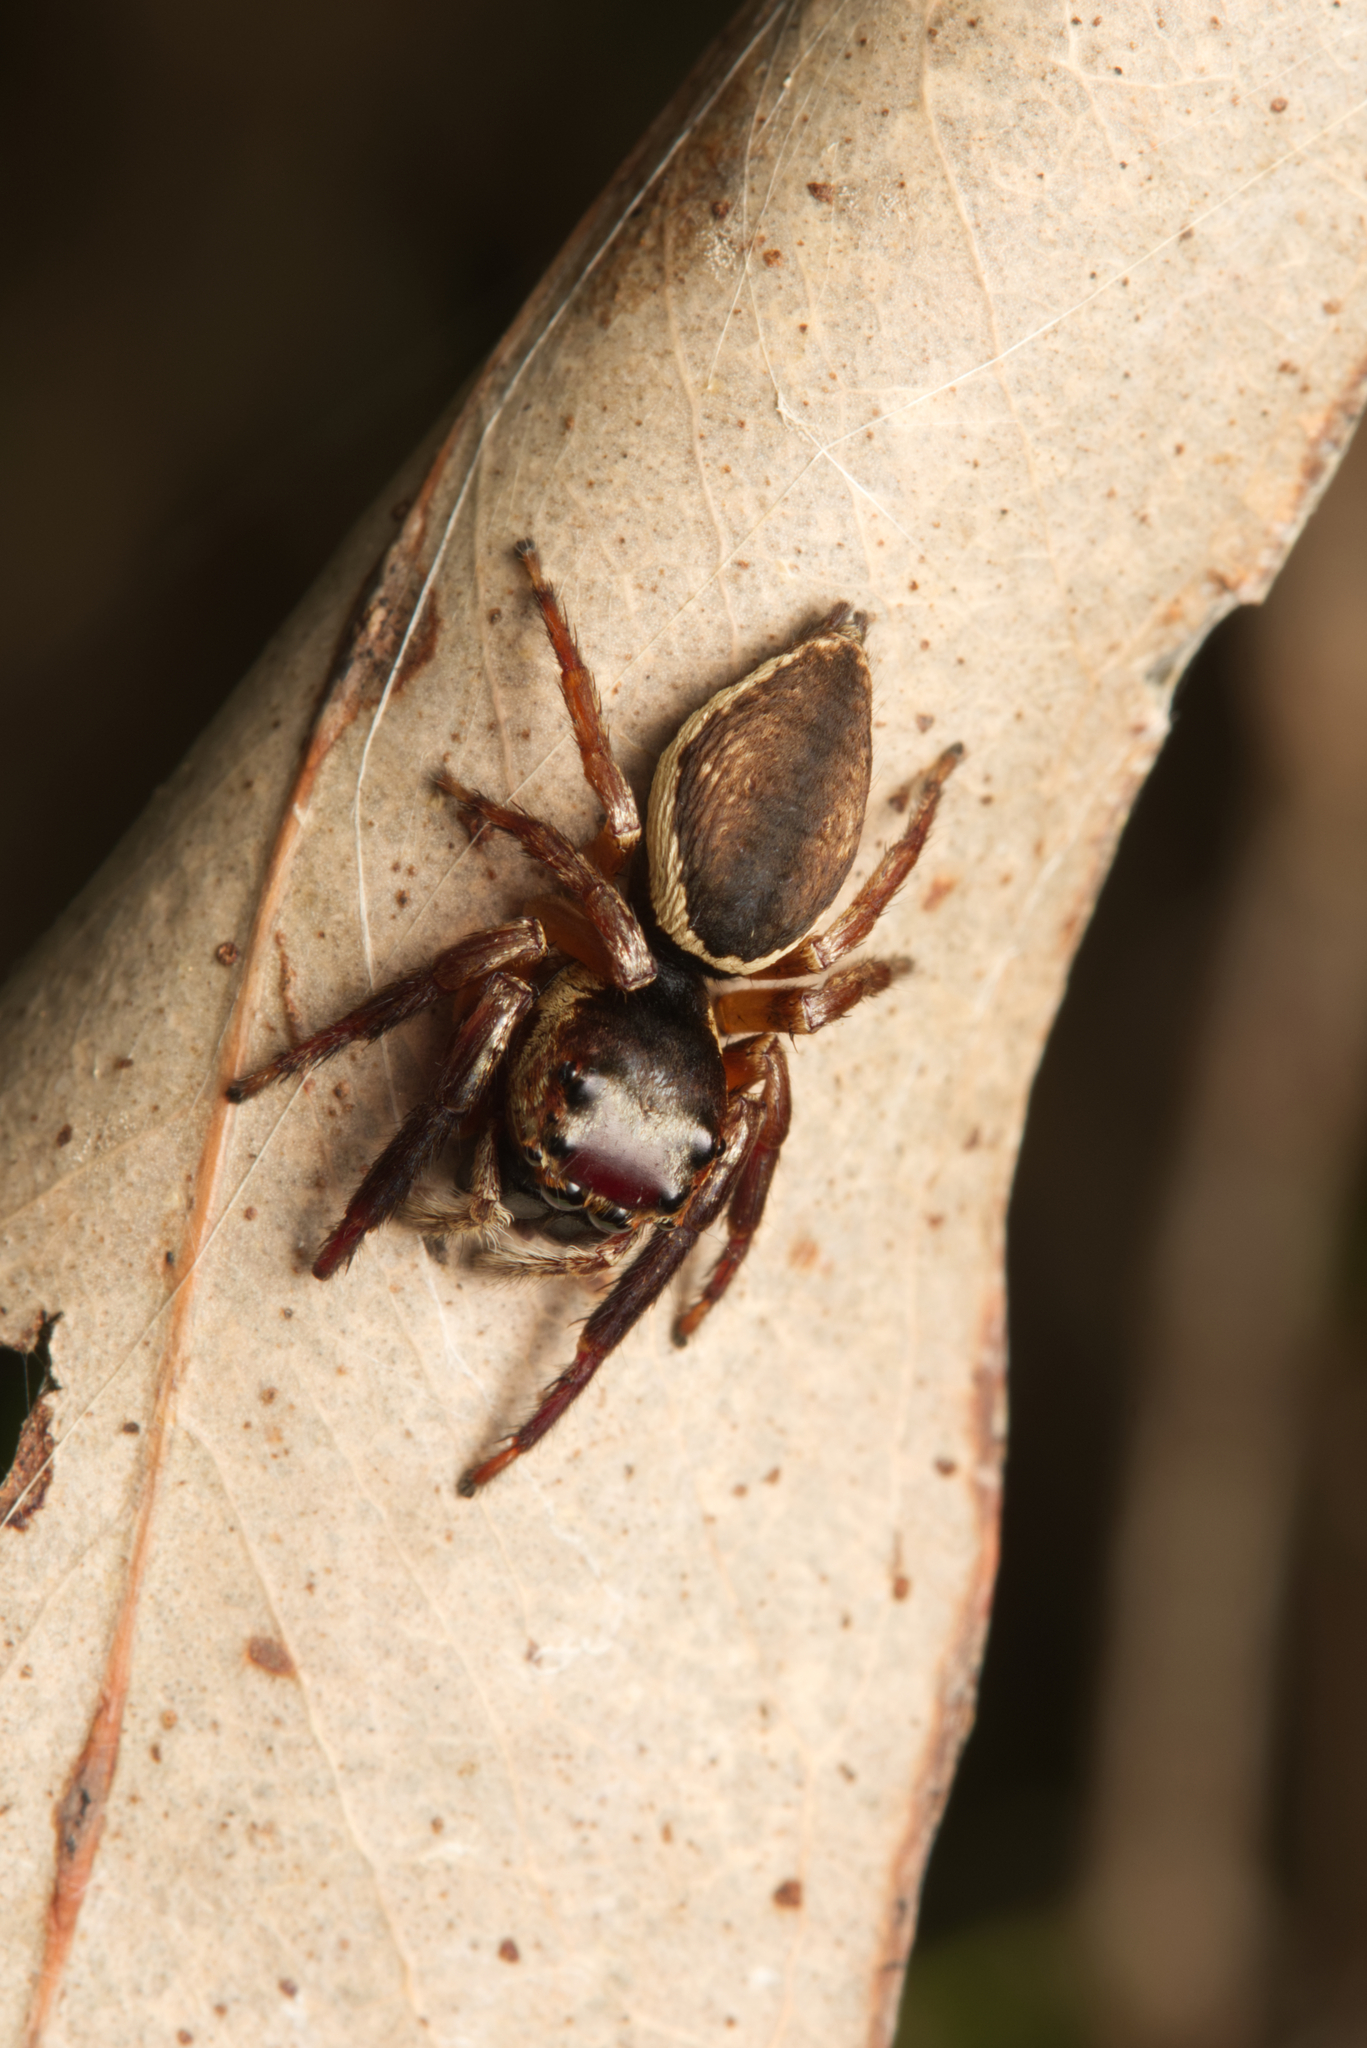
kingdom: Animalia
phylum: Arthropoda
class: Arachnida
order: Araneae
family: Salticidae
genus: Euryattus
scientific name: Euryattus wallacei
